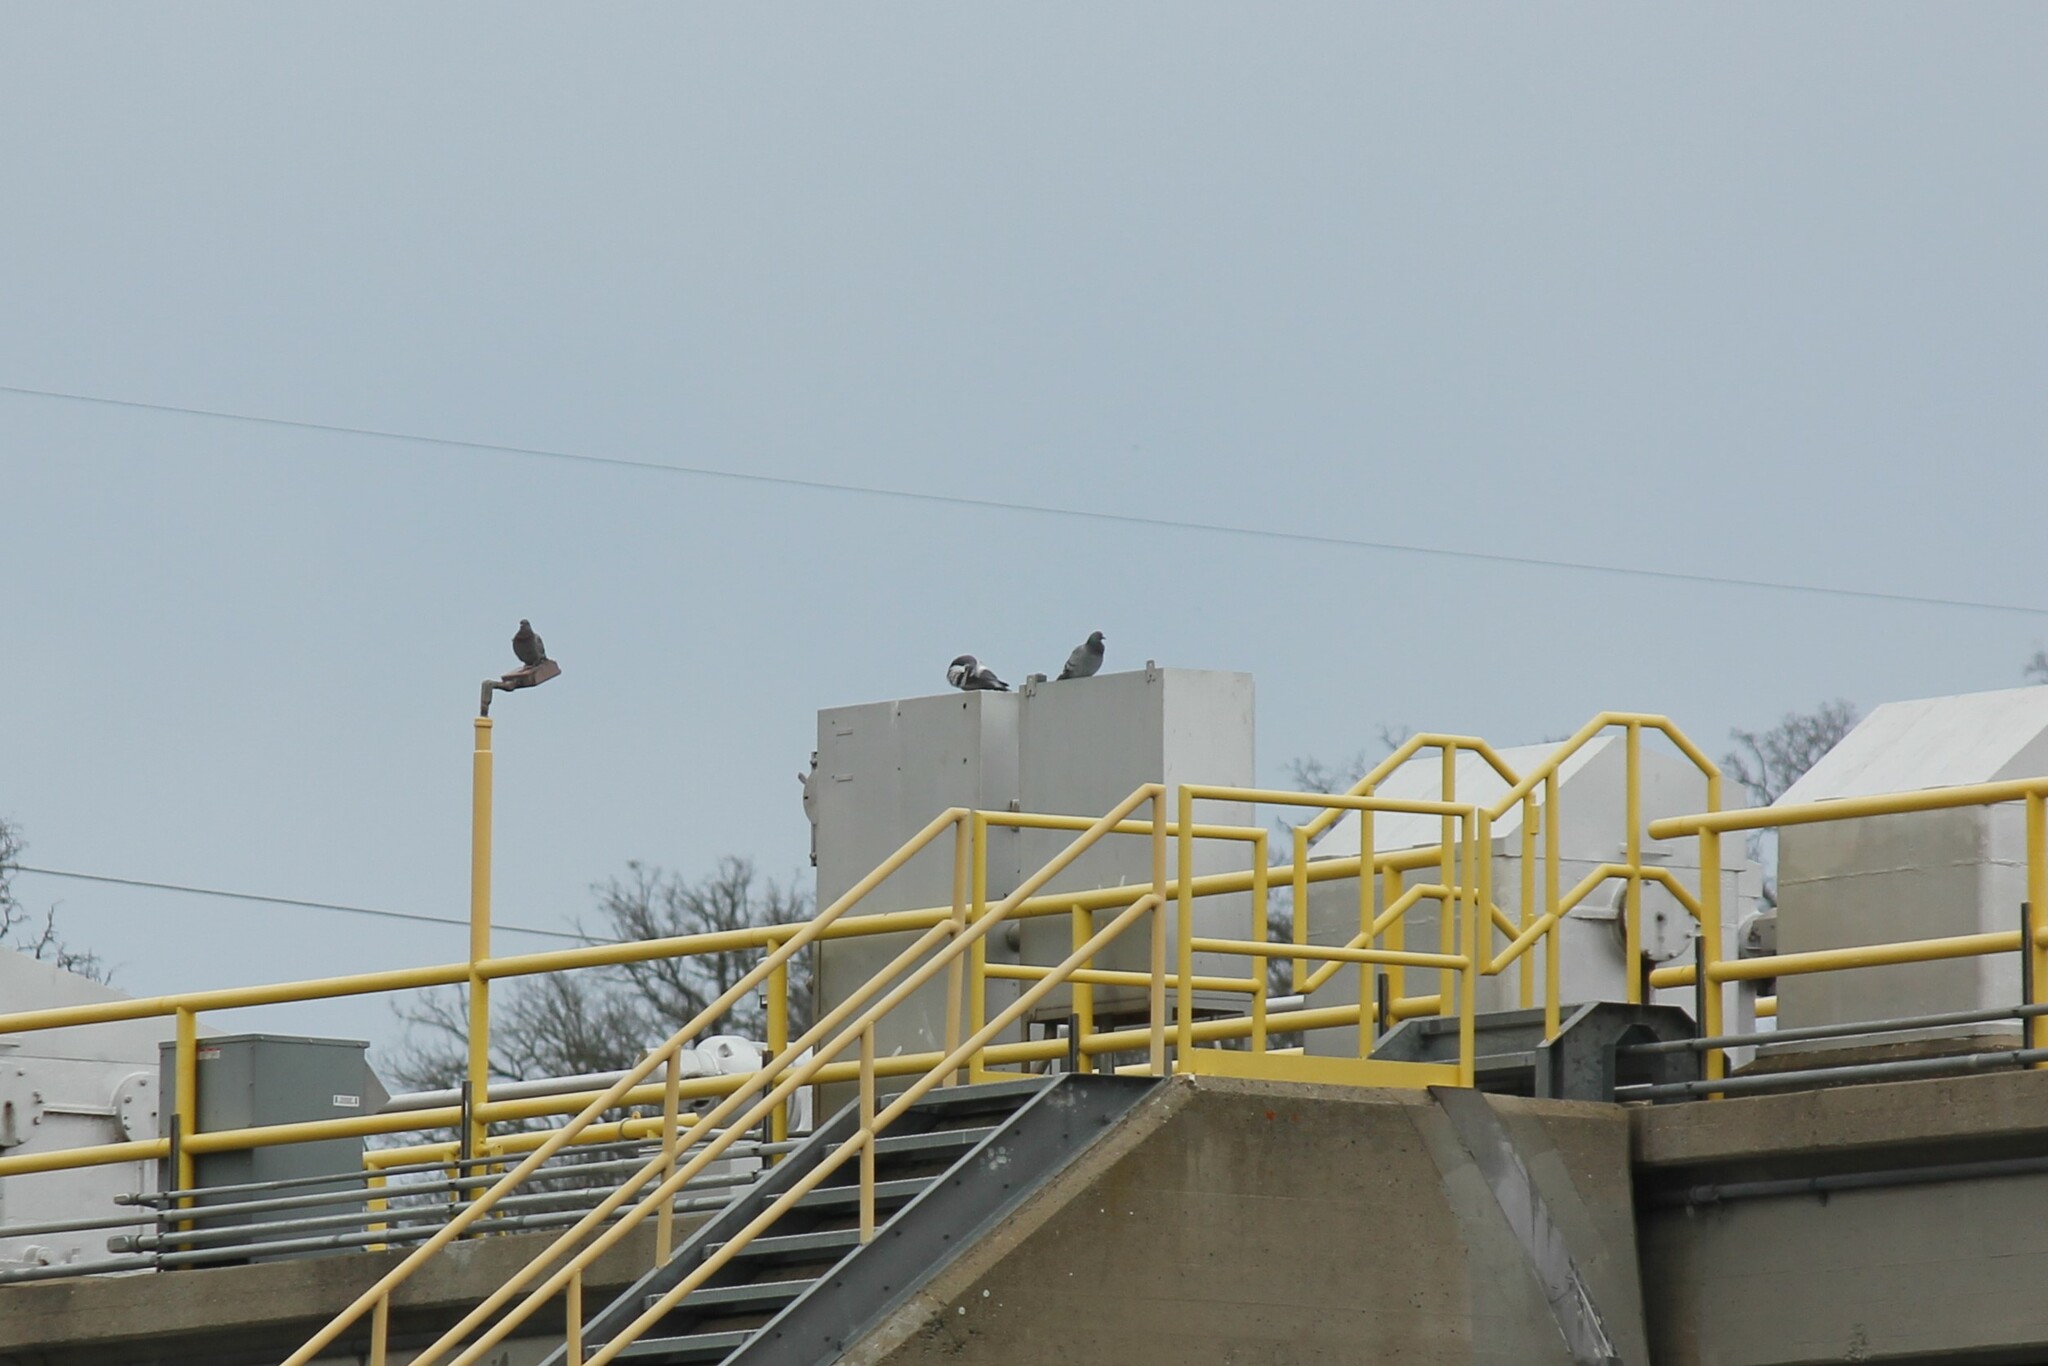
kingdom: Animalia
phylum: Chordata
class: Aves
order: Columbiformes
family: Columbidae
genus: Columba
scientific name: Columba livia
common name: Rock pigeon
